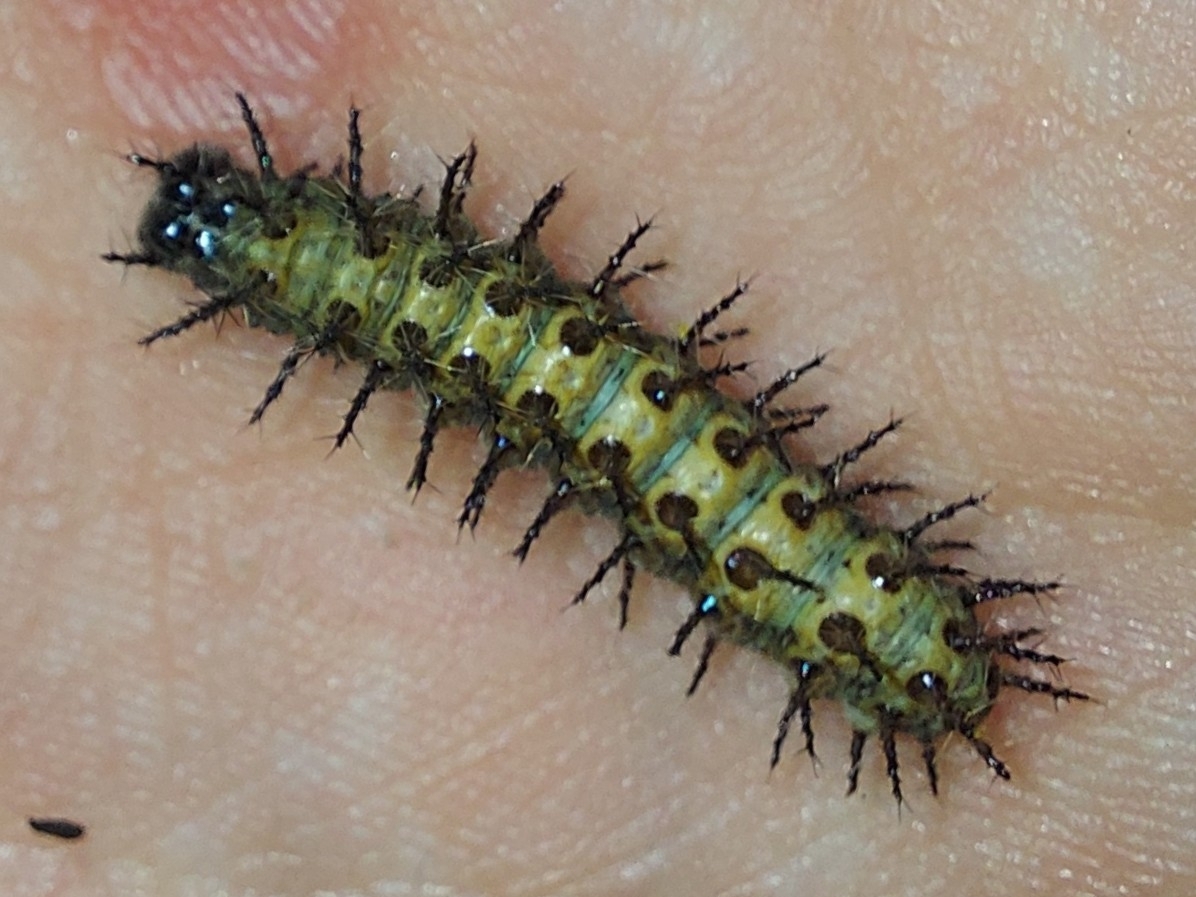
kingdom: Animalia
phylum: Arthropoda
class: Insecta
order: Lepidoptera
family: Nymphalidae
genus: Acraea
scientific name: Acraea horta
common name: Garden acraea
